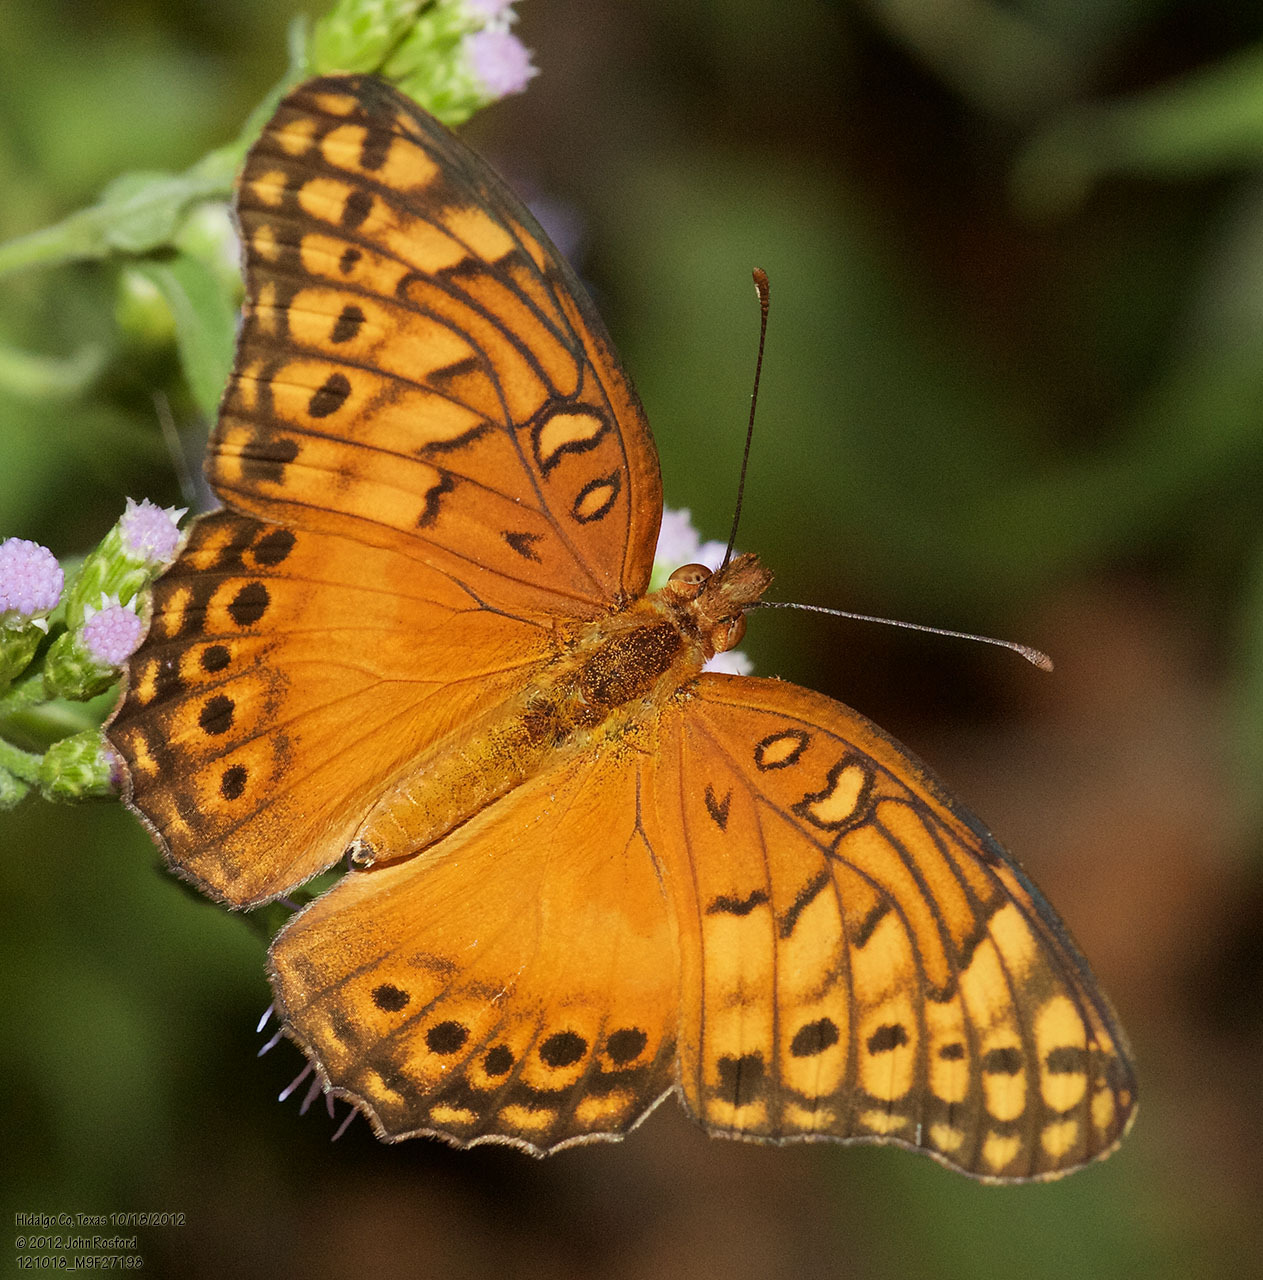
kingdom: Animalia
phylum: Arthropoda
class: Insecta
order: Lepidoptera
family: Nymphalidae
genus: Euptoieta
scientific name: Euptoieta hegesia
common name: Mexican fritillary
